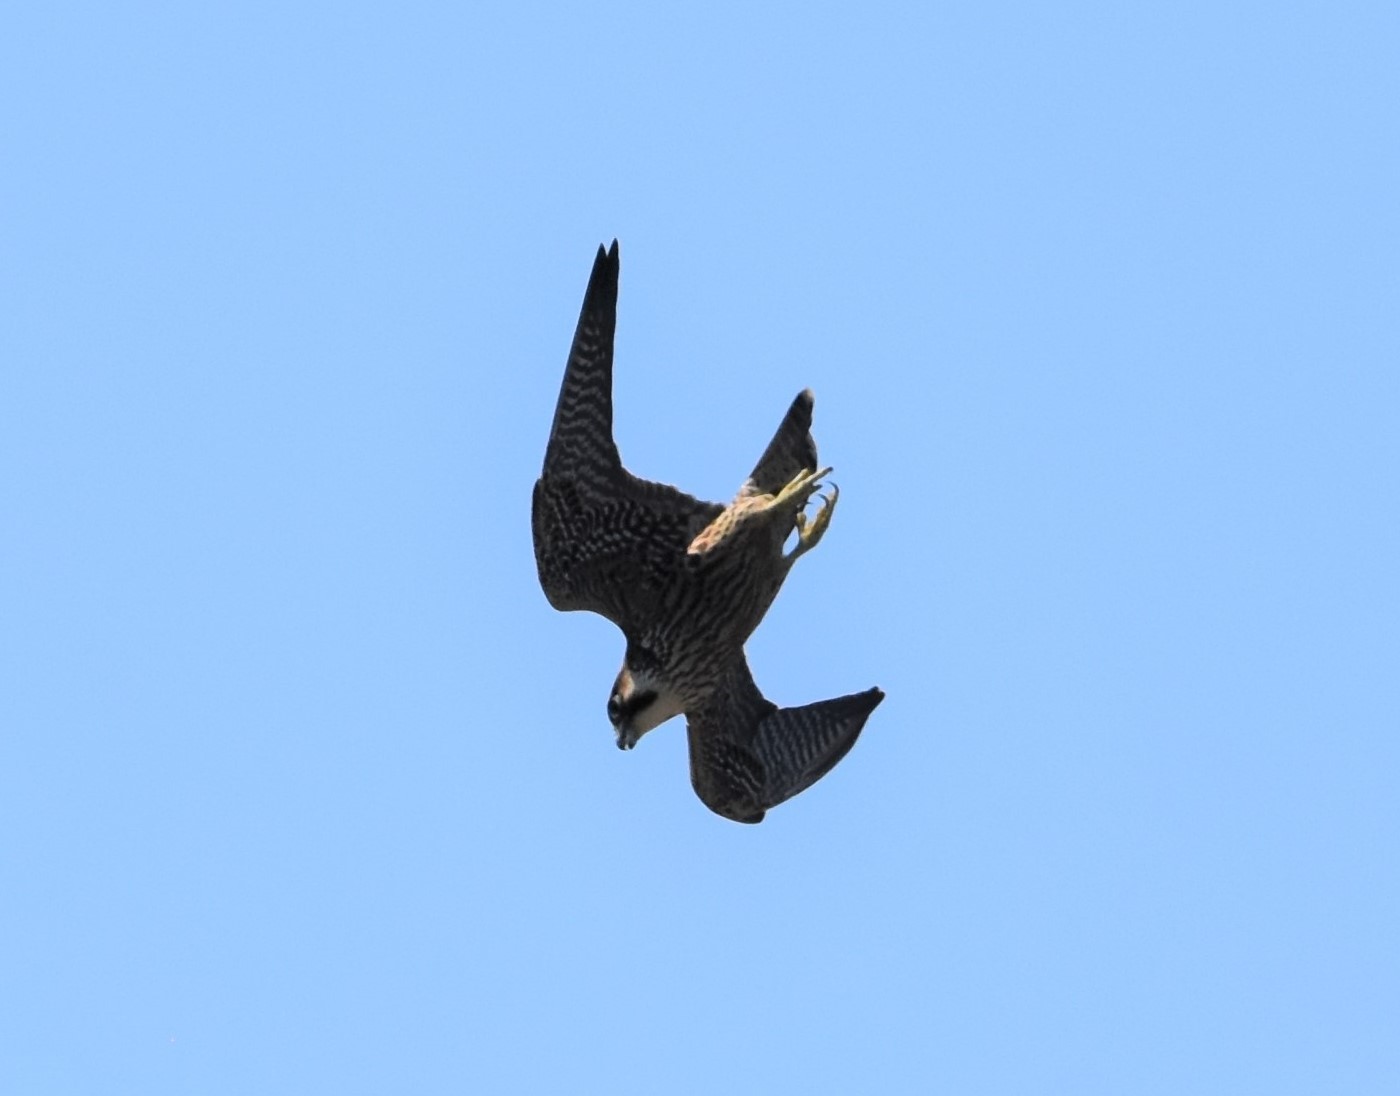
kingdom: Animalia
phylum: Chordata
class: Aves
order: Falconiformes
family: Falconidae
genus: Falco
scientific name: Falco peregrinus
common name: Peregrine falcon
